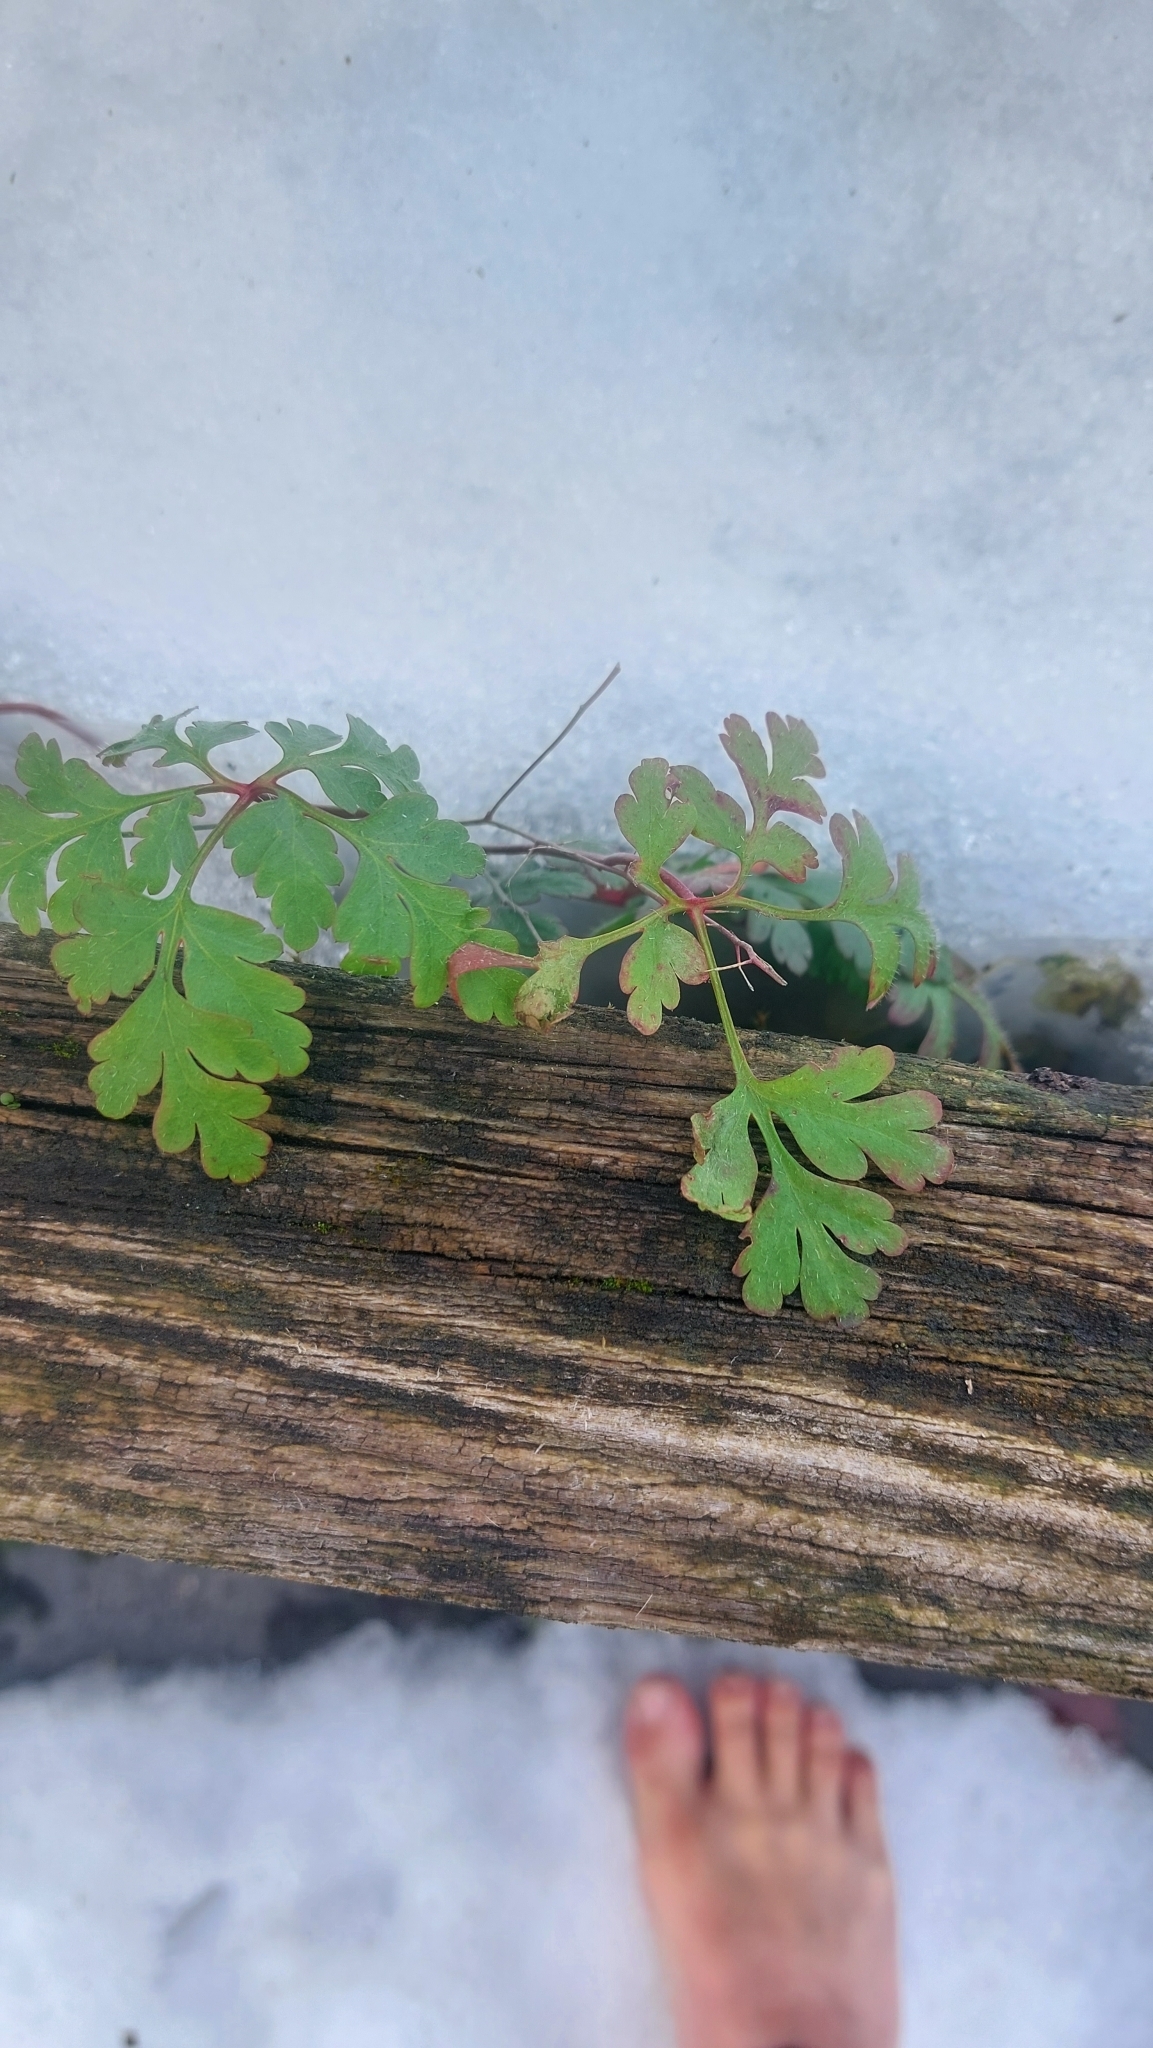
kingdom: Plantae
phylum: Tracheophyta
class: Magnoliopsida
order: Geraniales
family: Geraniaceae
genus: Geranium
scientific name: Geranium robertianum
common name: Herb-robert
